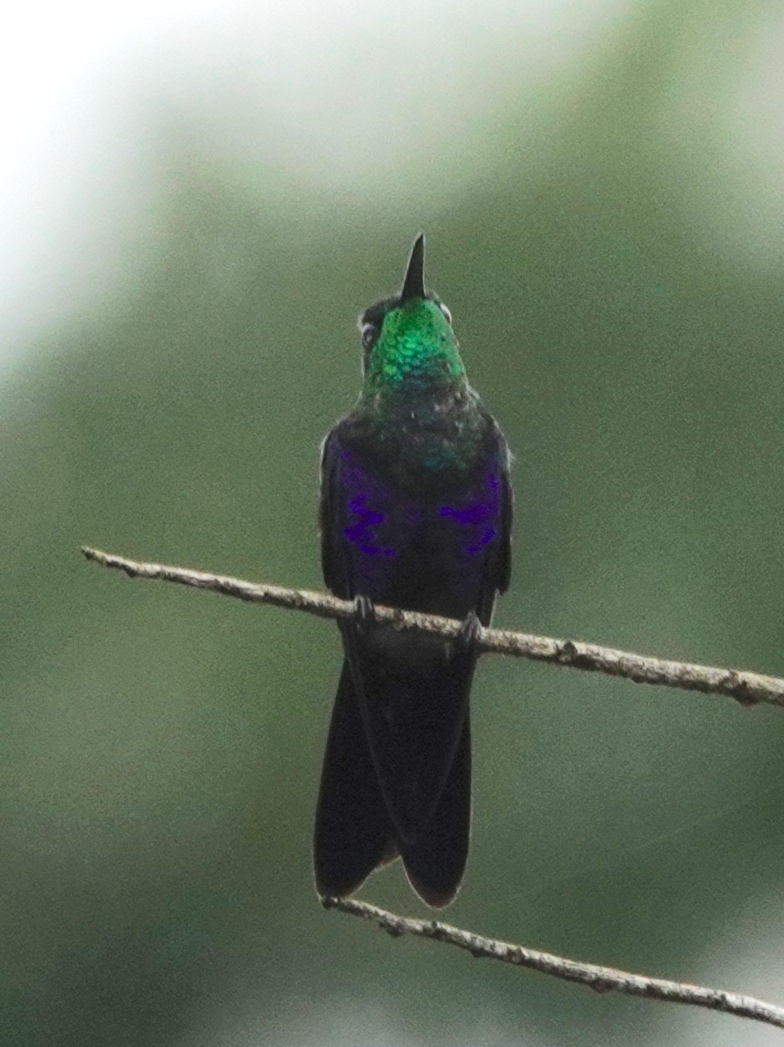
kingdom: Animalia
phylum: Chordata
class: Aves
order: Apodiformes
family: Trochilidae
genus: Thalurania
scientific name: Thalurania furcata
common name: Fork-tailed woodnymph
